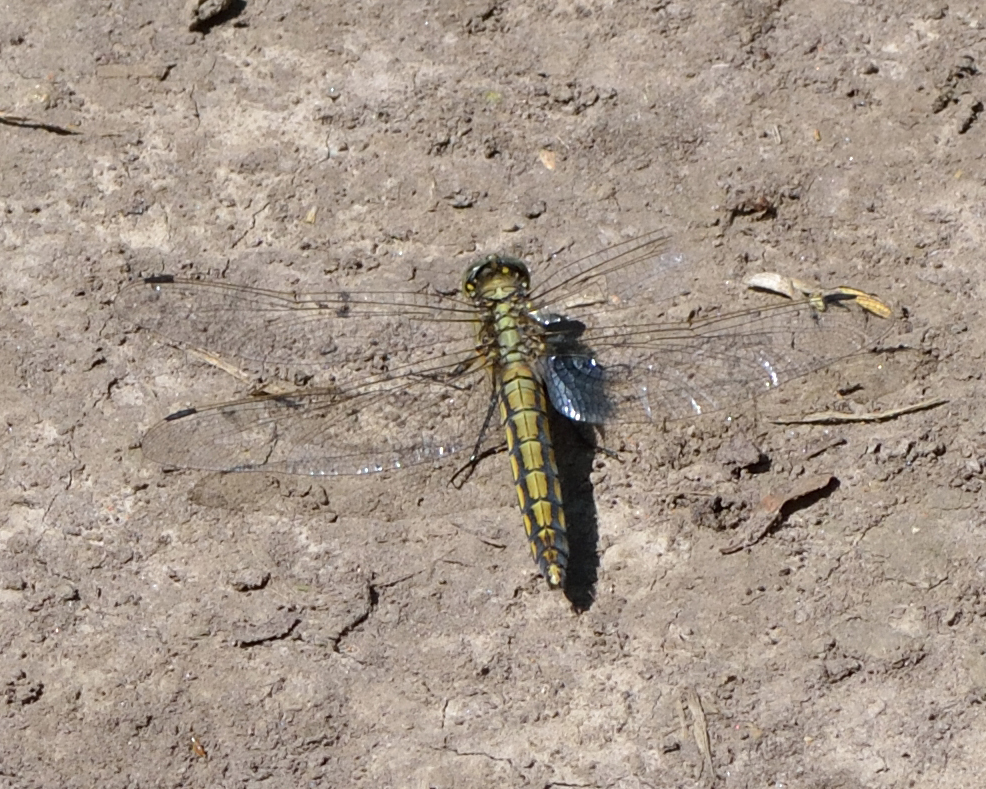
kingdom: Animalia
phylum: Arthropoda
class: Insecta
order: Odonata
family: Libellulidae
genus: Orthetrum
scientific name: Orthetrum cancellatum
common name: Black-tailed skimmer
